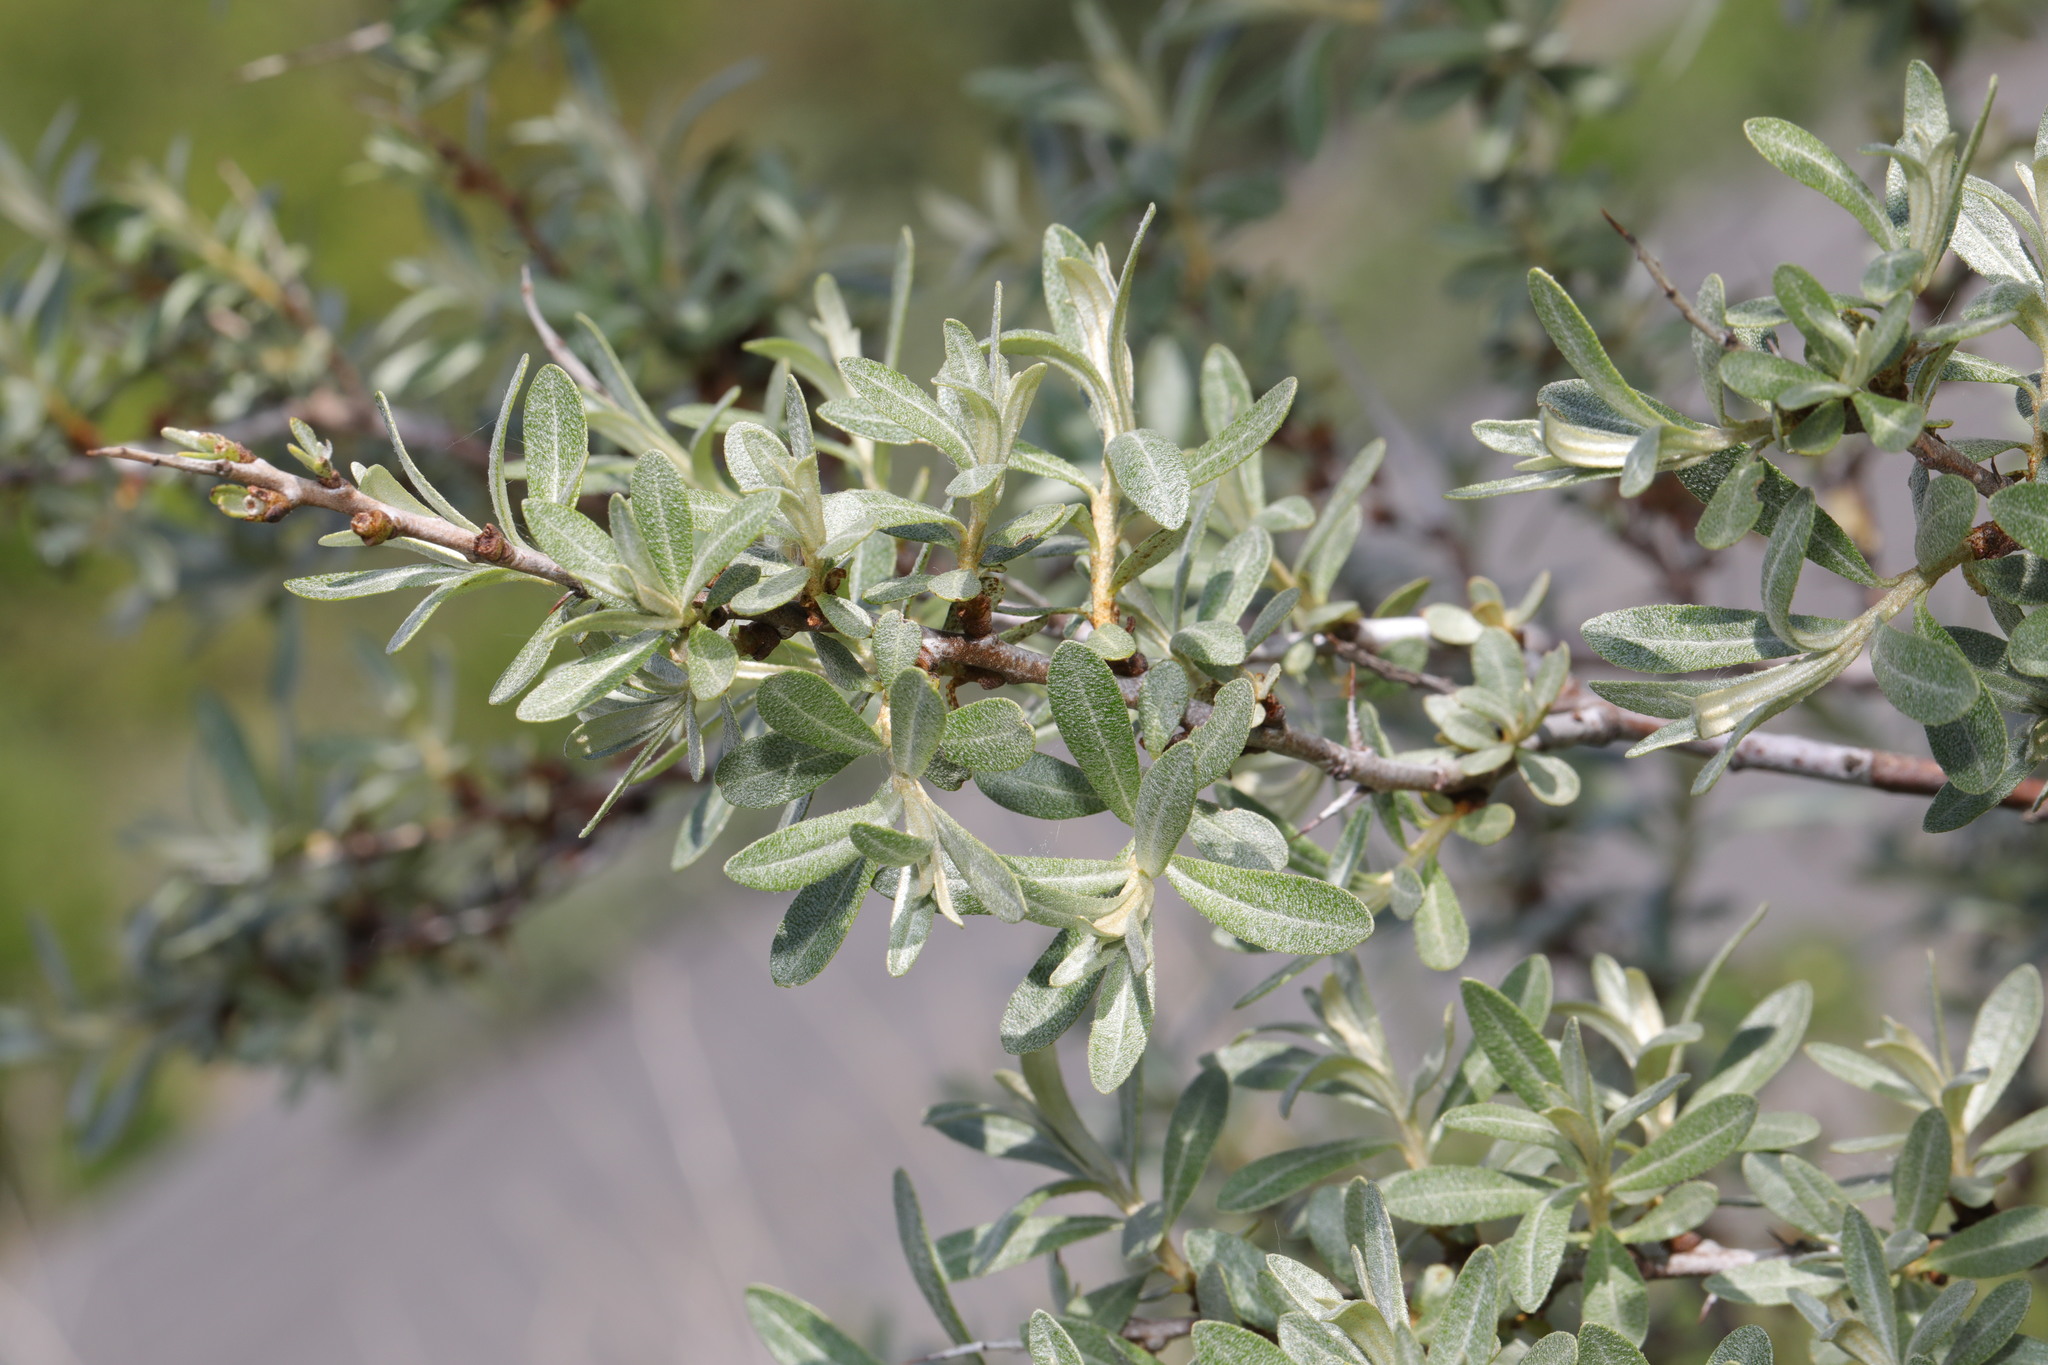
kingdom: Plantae
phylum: Tracheophyta
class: Magnoliopsida
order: Rosales
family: Elaeagnaceae
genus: Hippophae
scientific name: Hippophae rhamnoides
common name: Sea-buckthorn
